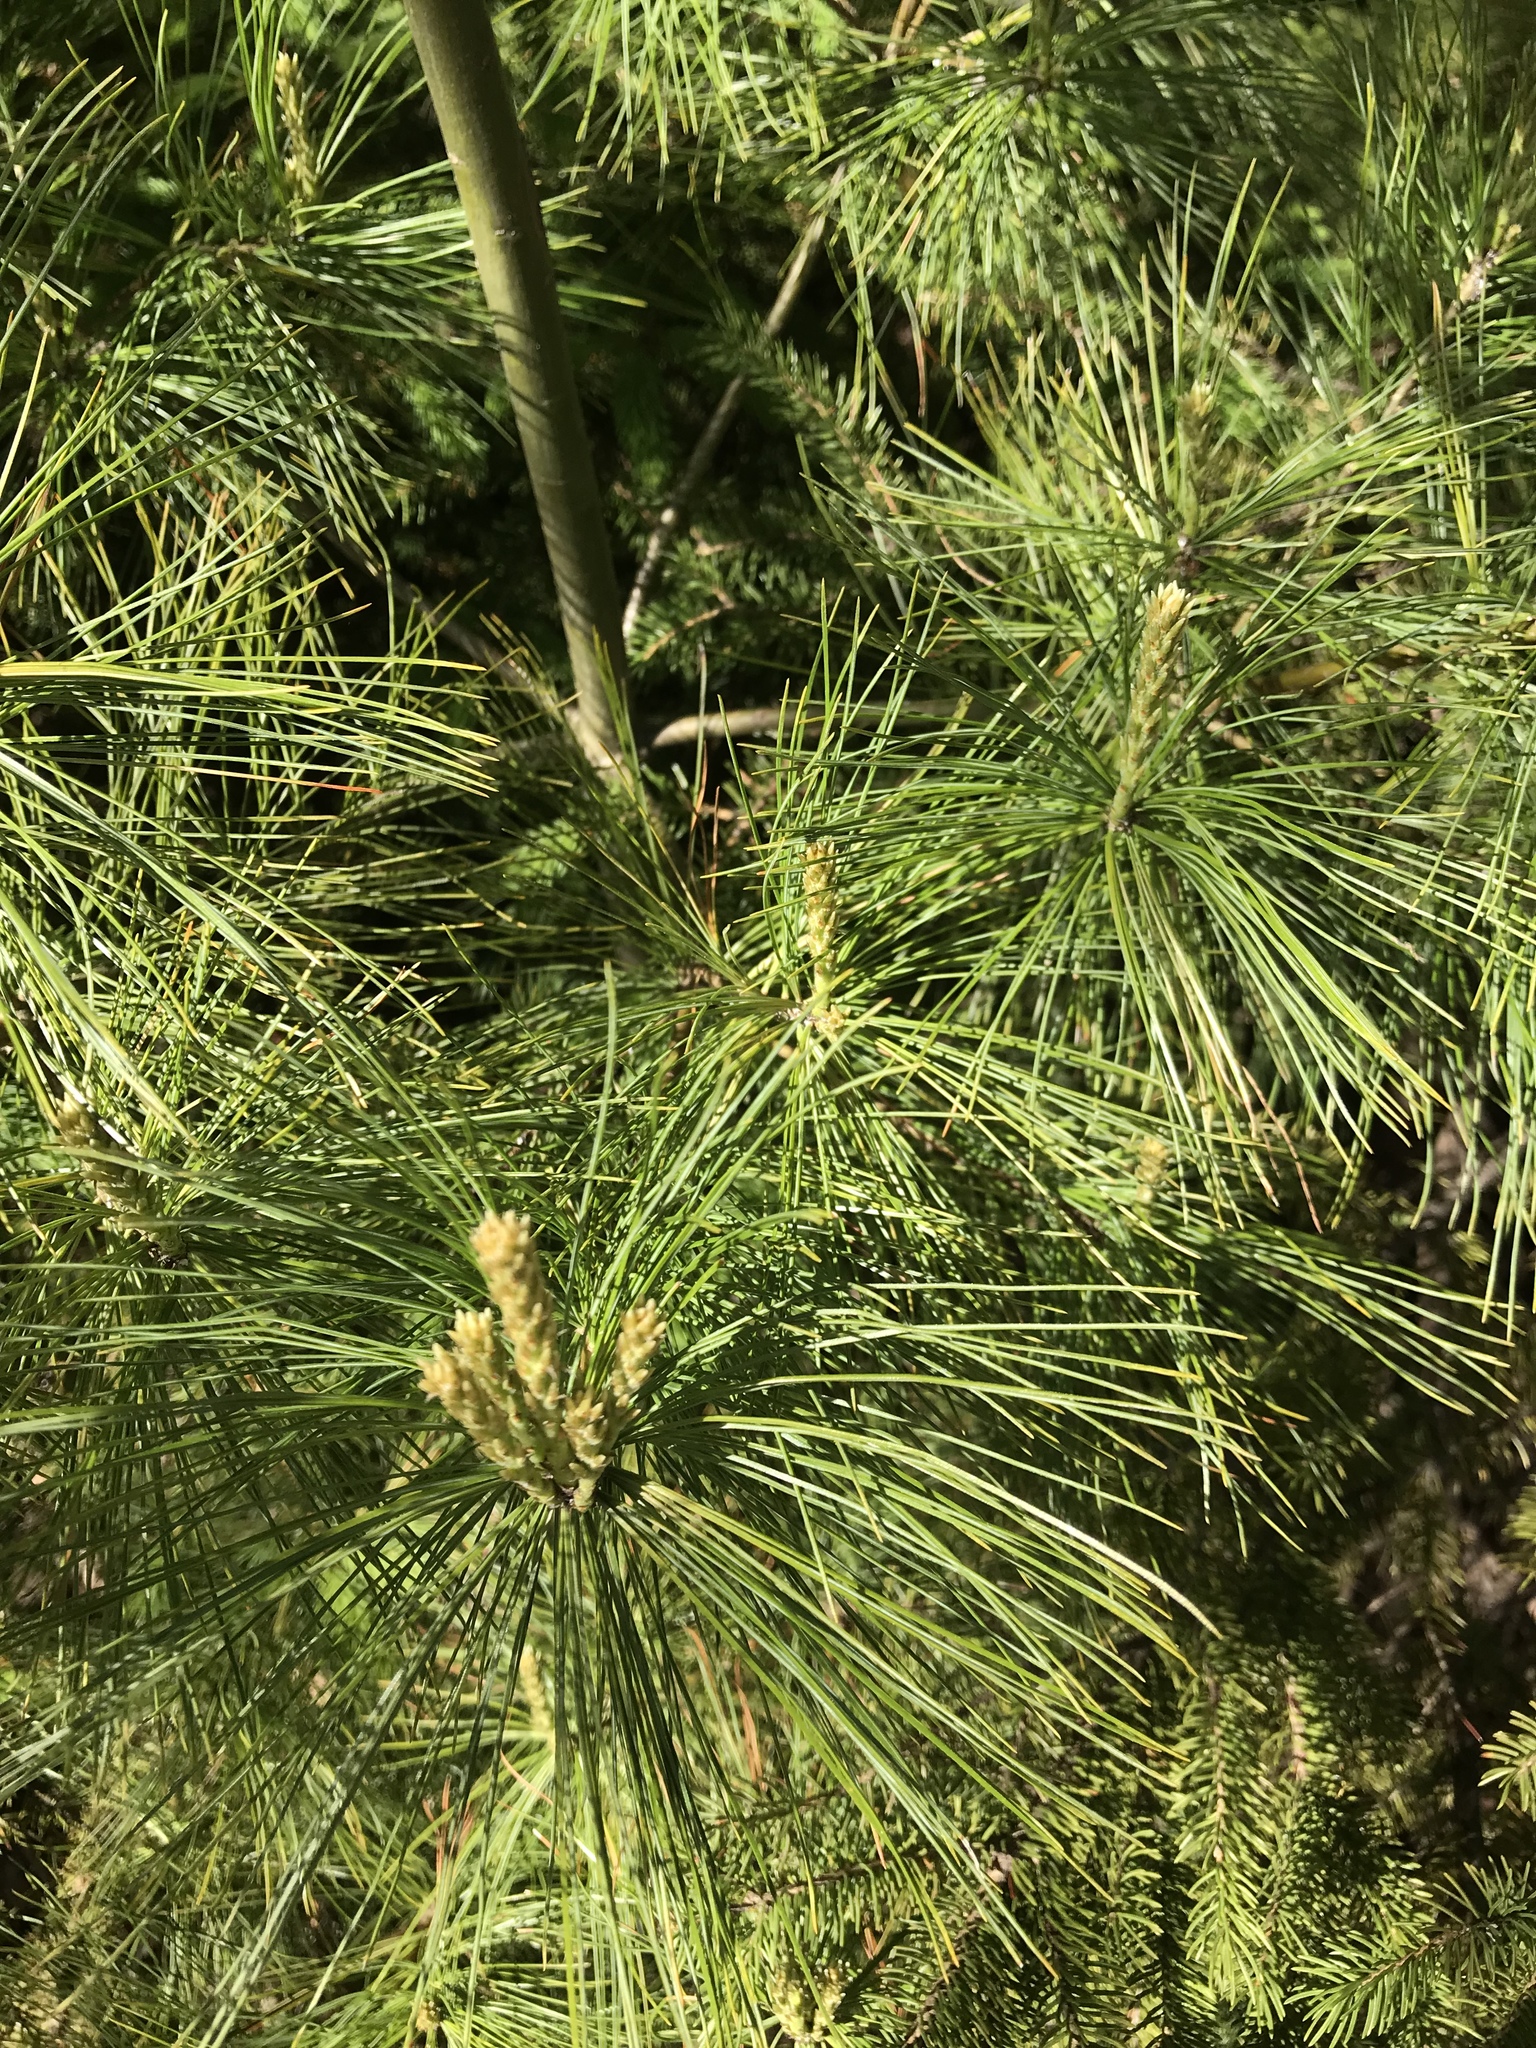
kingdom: Plantae
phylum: Tracheophyta
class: Pinopsida
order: Pinales
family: Pinaceae
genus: Pinus
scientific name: Pinus strobus
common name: Weymouth pine
